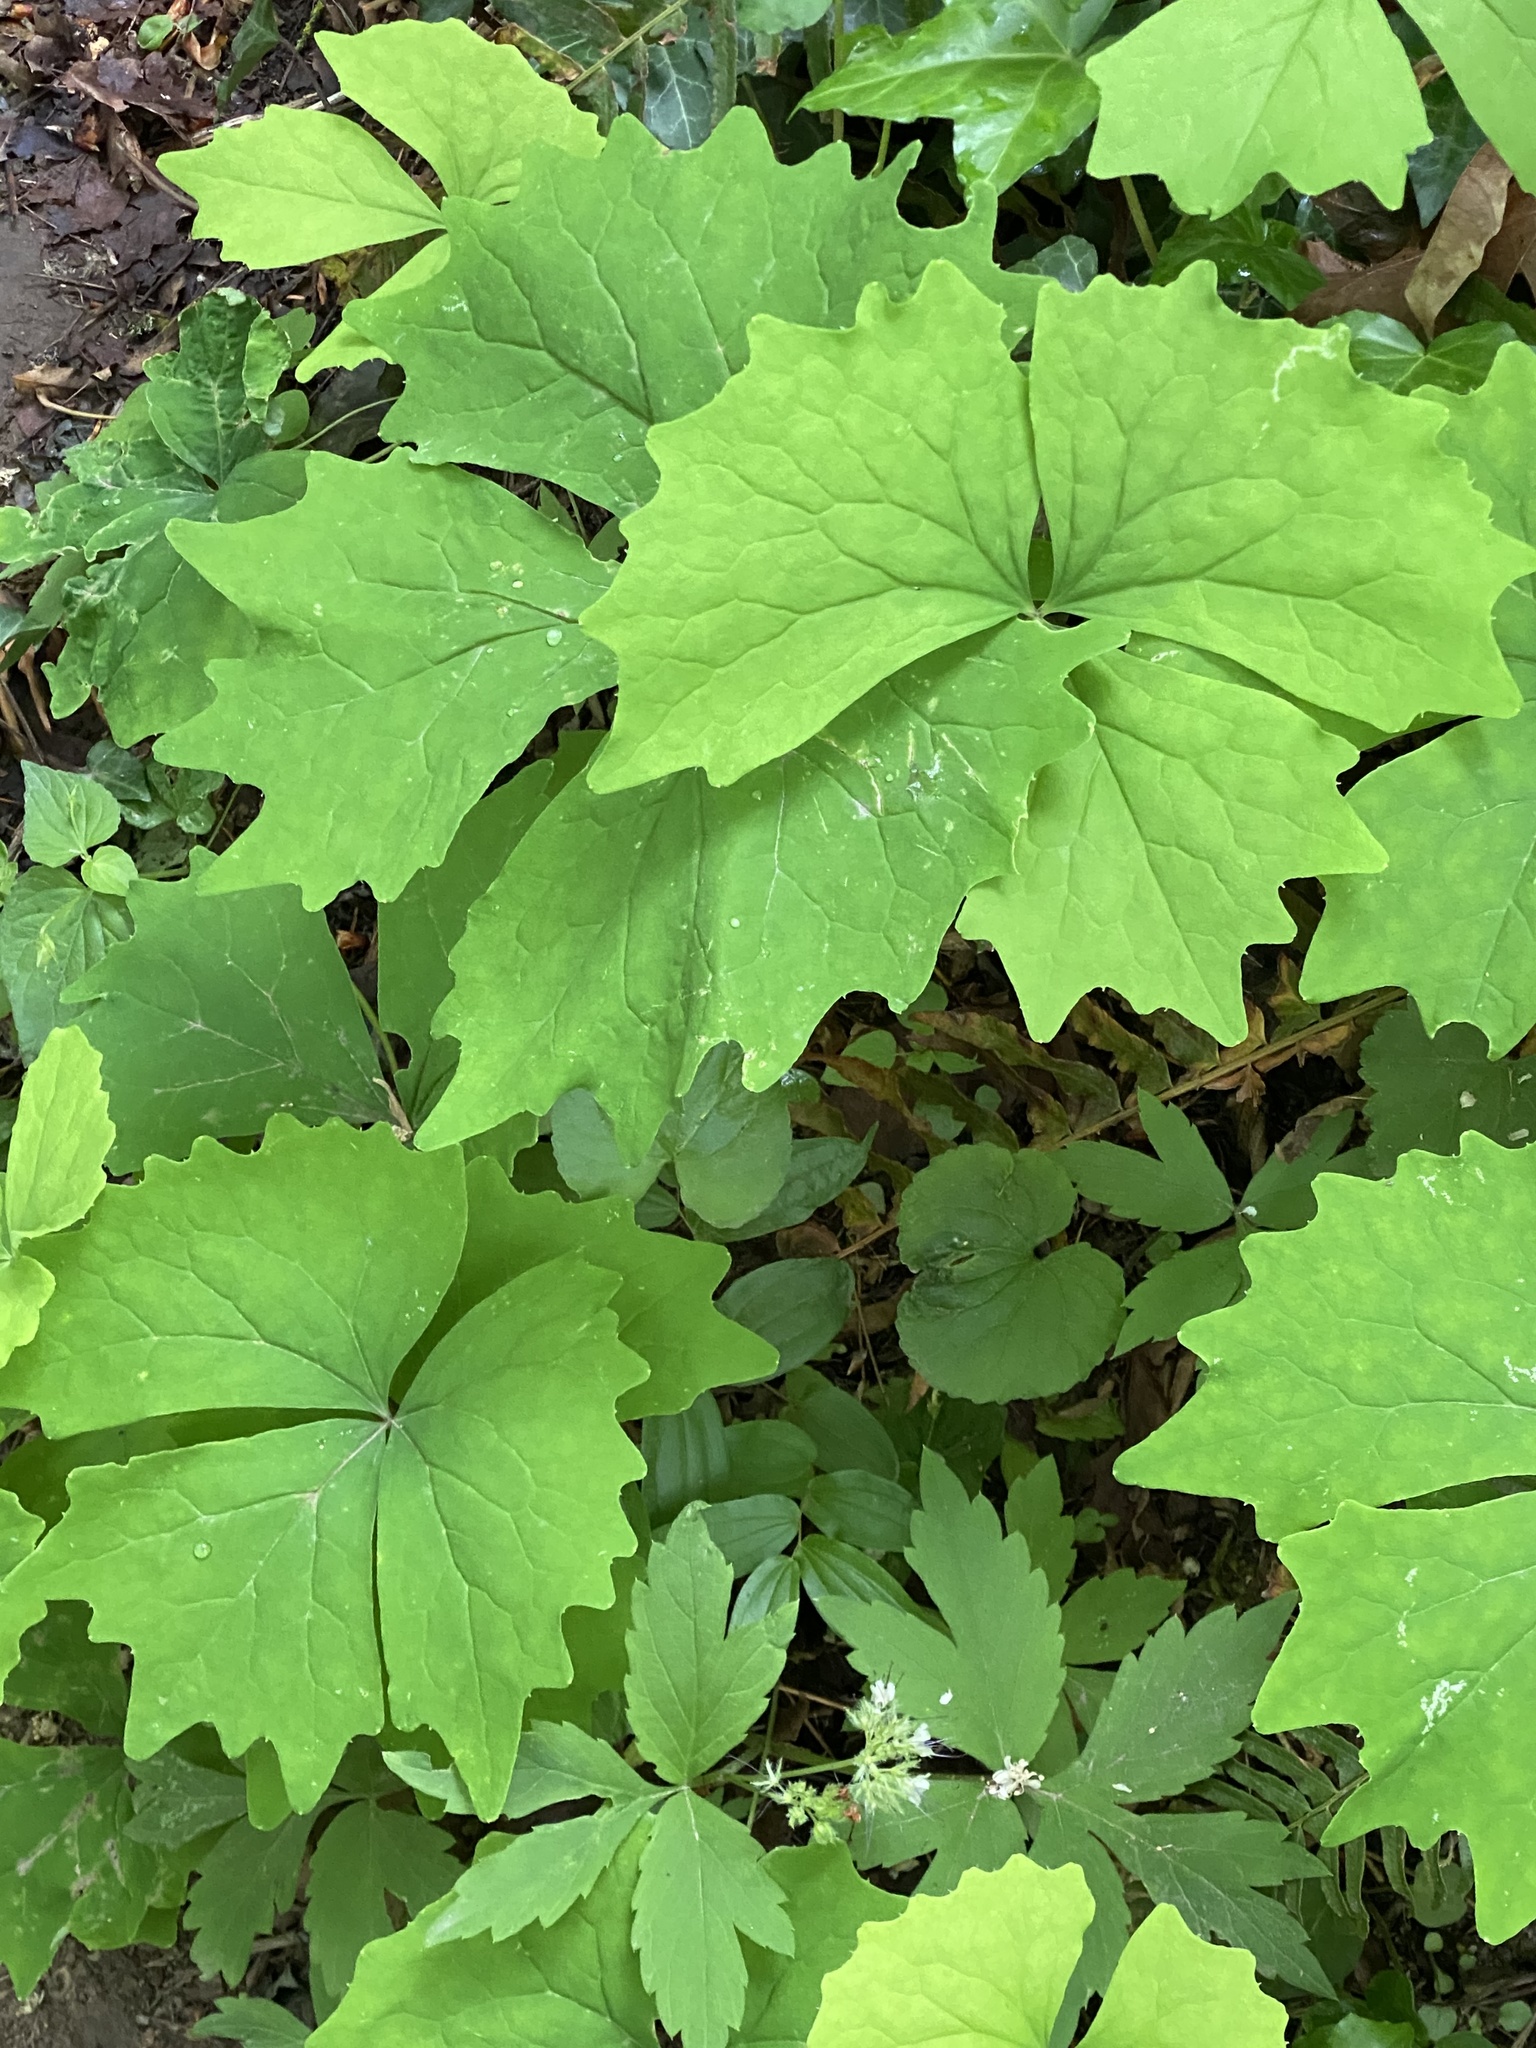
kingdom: Plantae
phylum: Tracheophyta
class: Magnoliopsida
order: Ranunculales
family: Berberidaceae
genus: Achlys
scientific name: Achlys triphylla
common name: Vanilla-leaf
